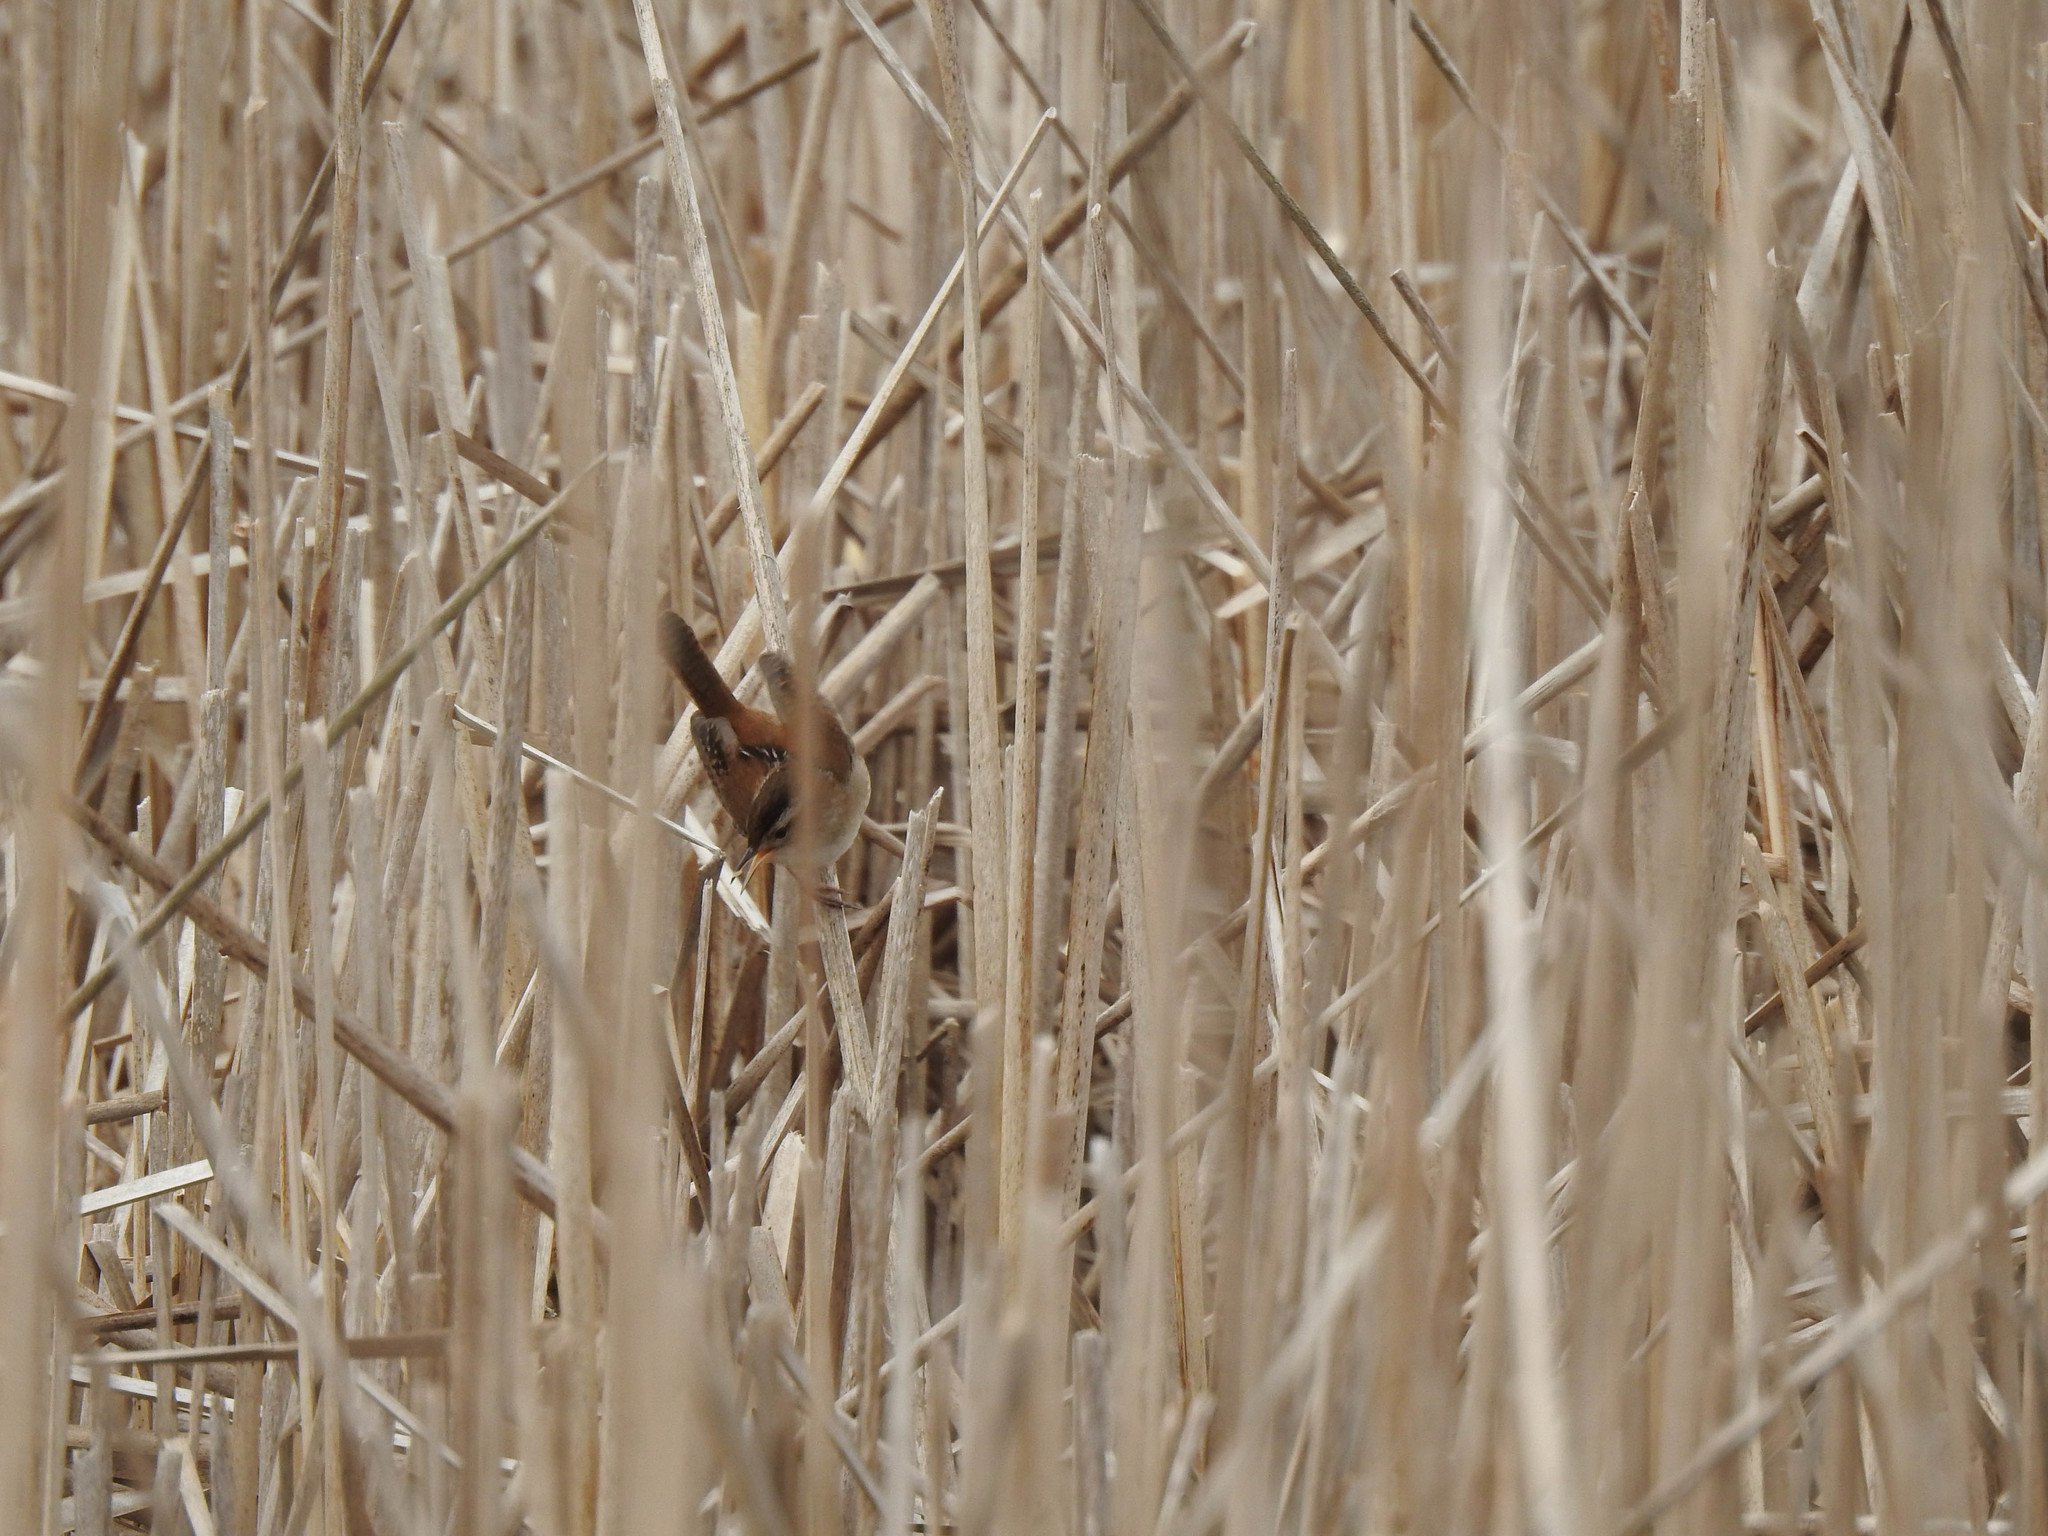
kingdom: Animalia
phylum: Chordata
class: Aves
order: Passeriformes
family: Troglodytidae
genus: Cistothorus
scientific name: Cistothorus palustris
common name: Marsh wren
